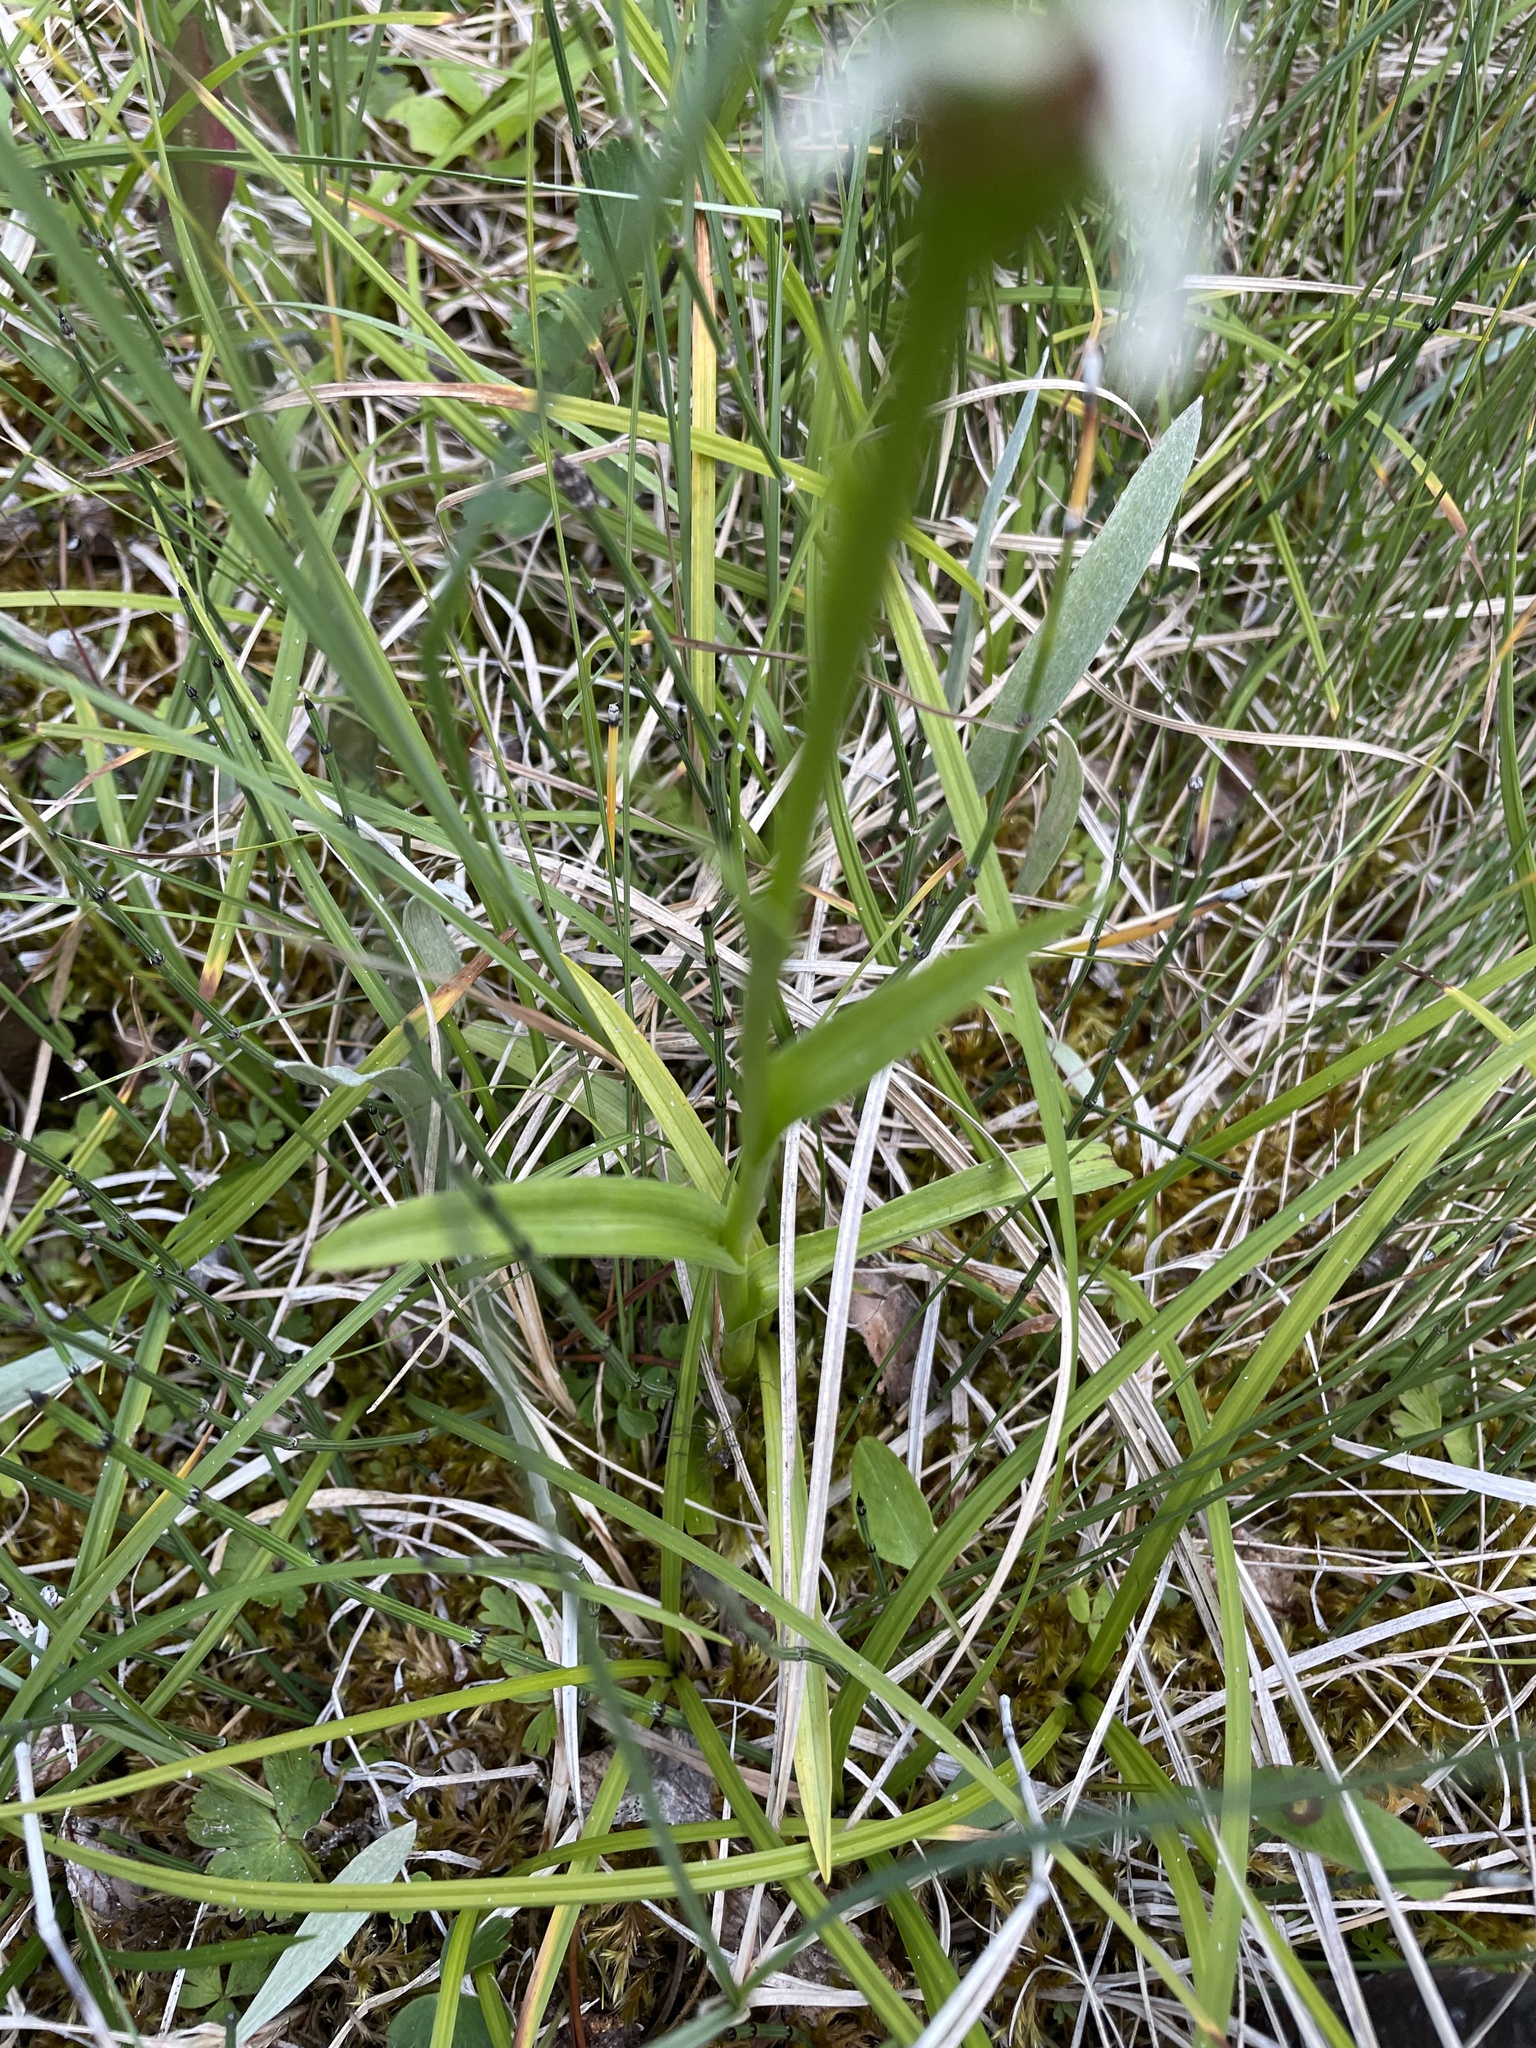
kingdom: Plantae
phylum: Tracheophyta
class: Liliopsida
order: Asparagales
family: Orchidaceae
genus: Platanthera
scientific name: Platanthera dilatata
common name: Bog candles
